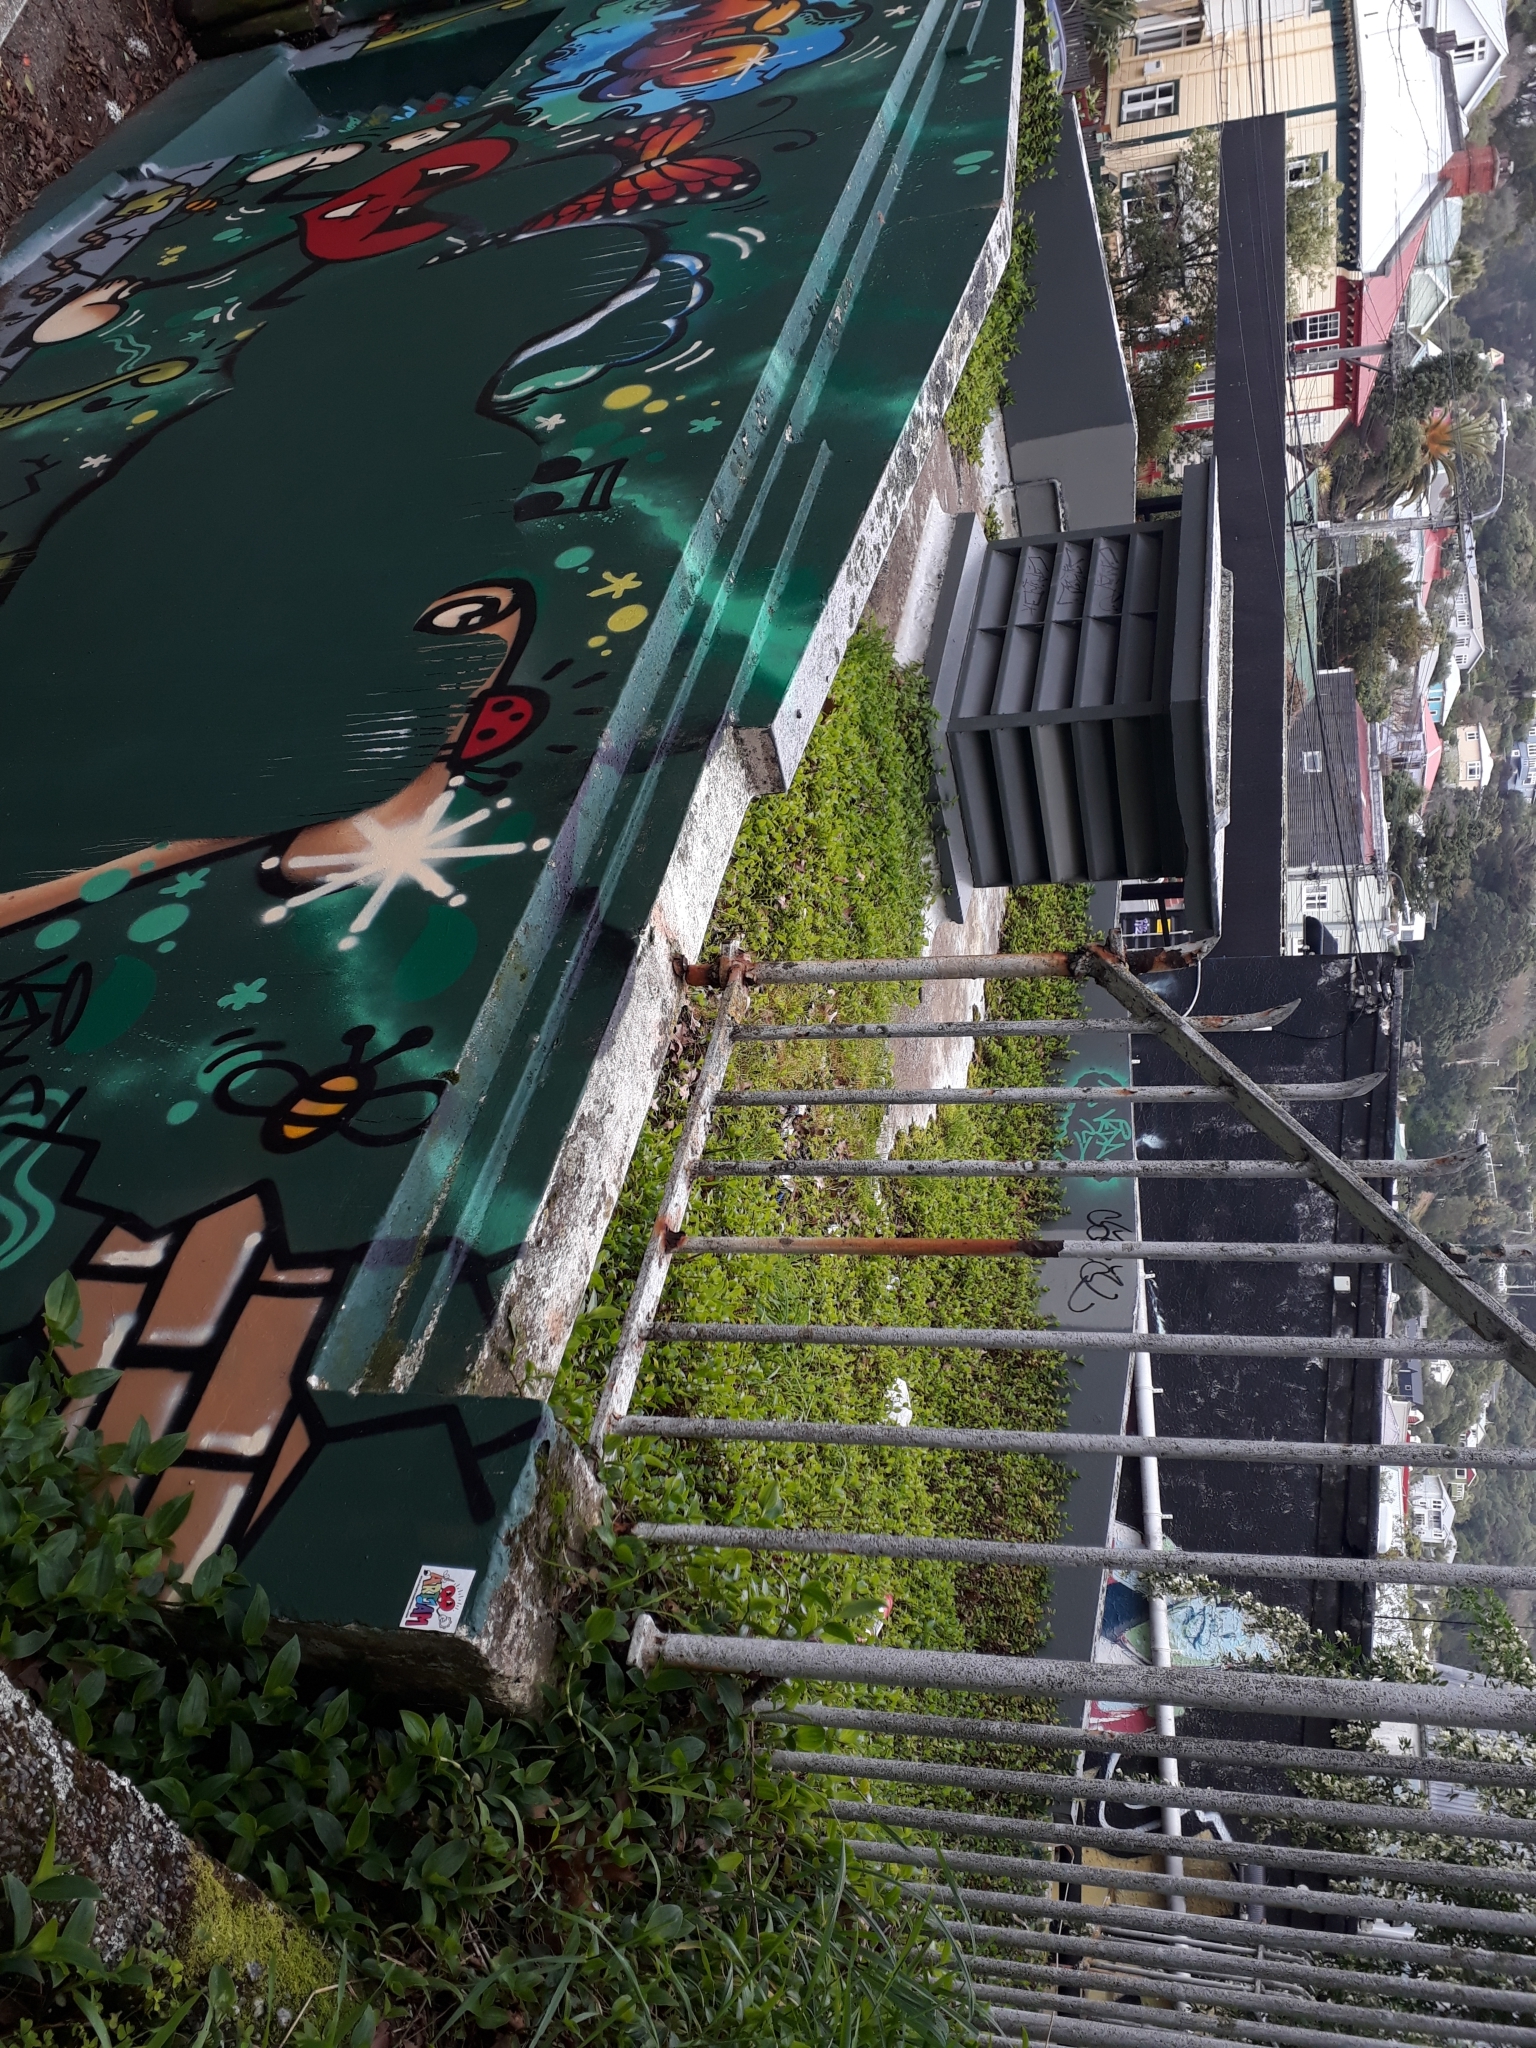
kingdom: Plantae
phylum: Tracheophyta
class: Liliopsida
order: Commelinales
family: Commelinaceae
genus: Tradescantia
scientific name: Tradescantia fluminensis
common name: Wandering-jew
